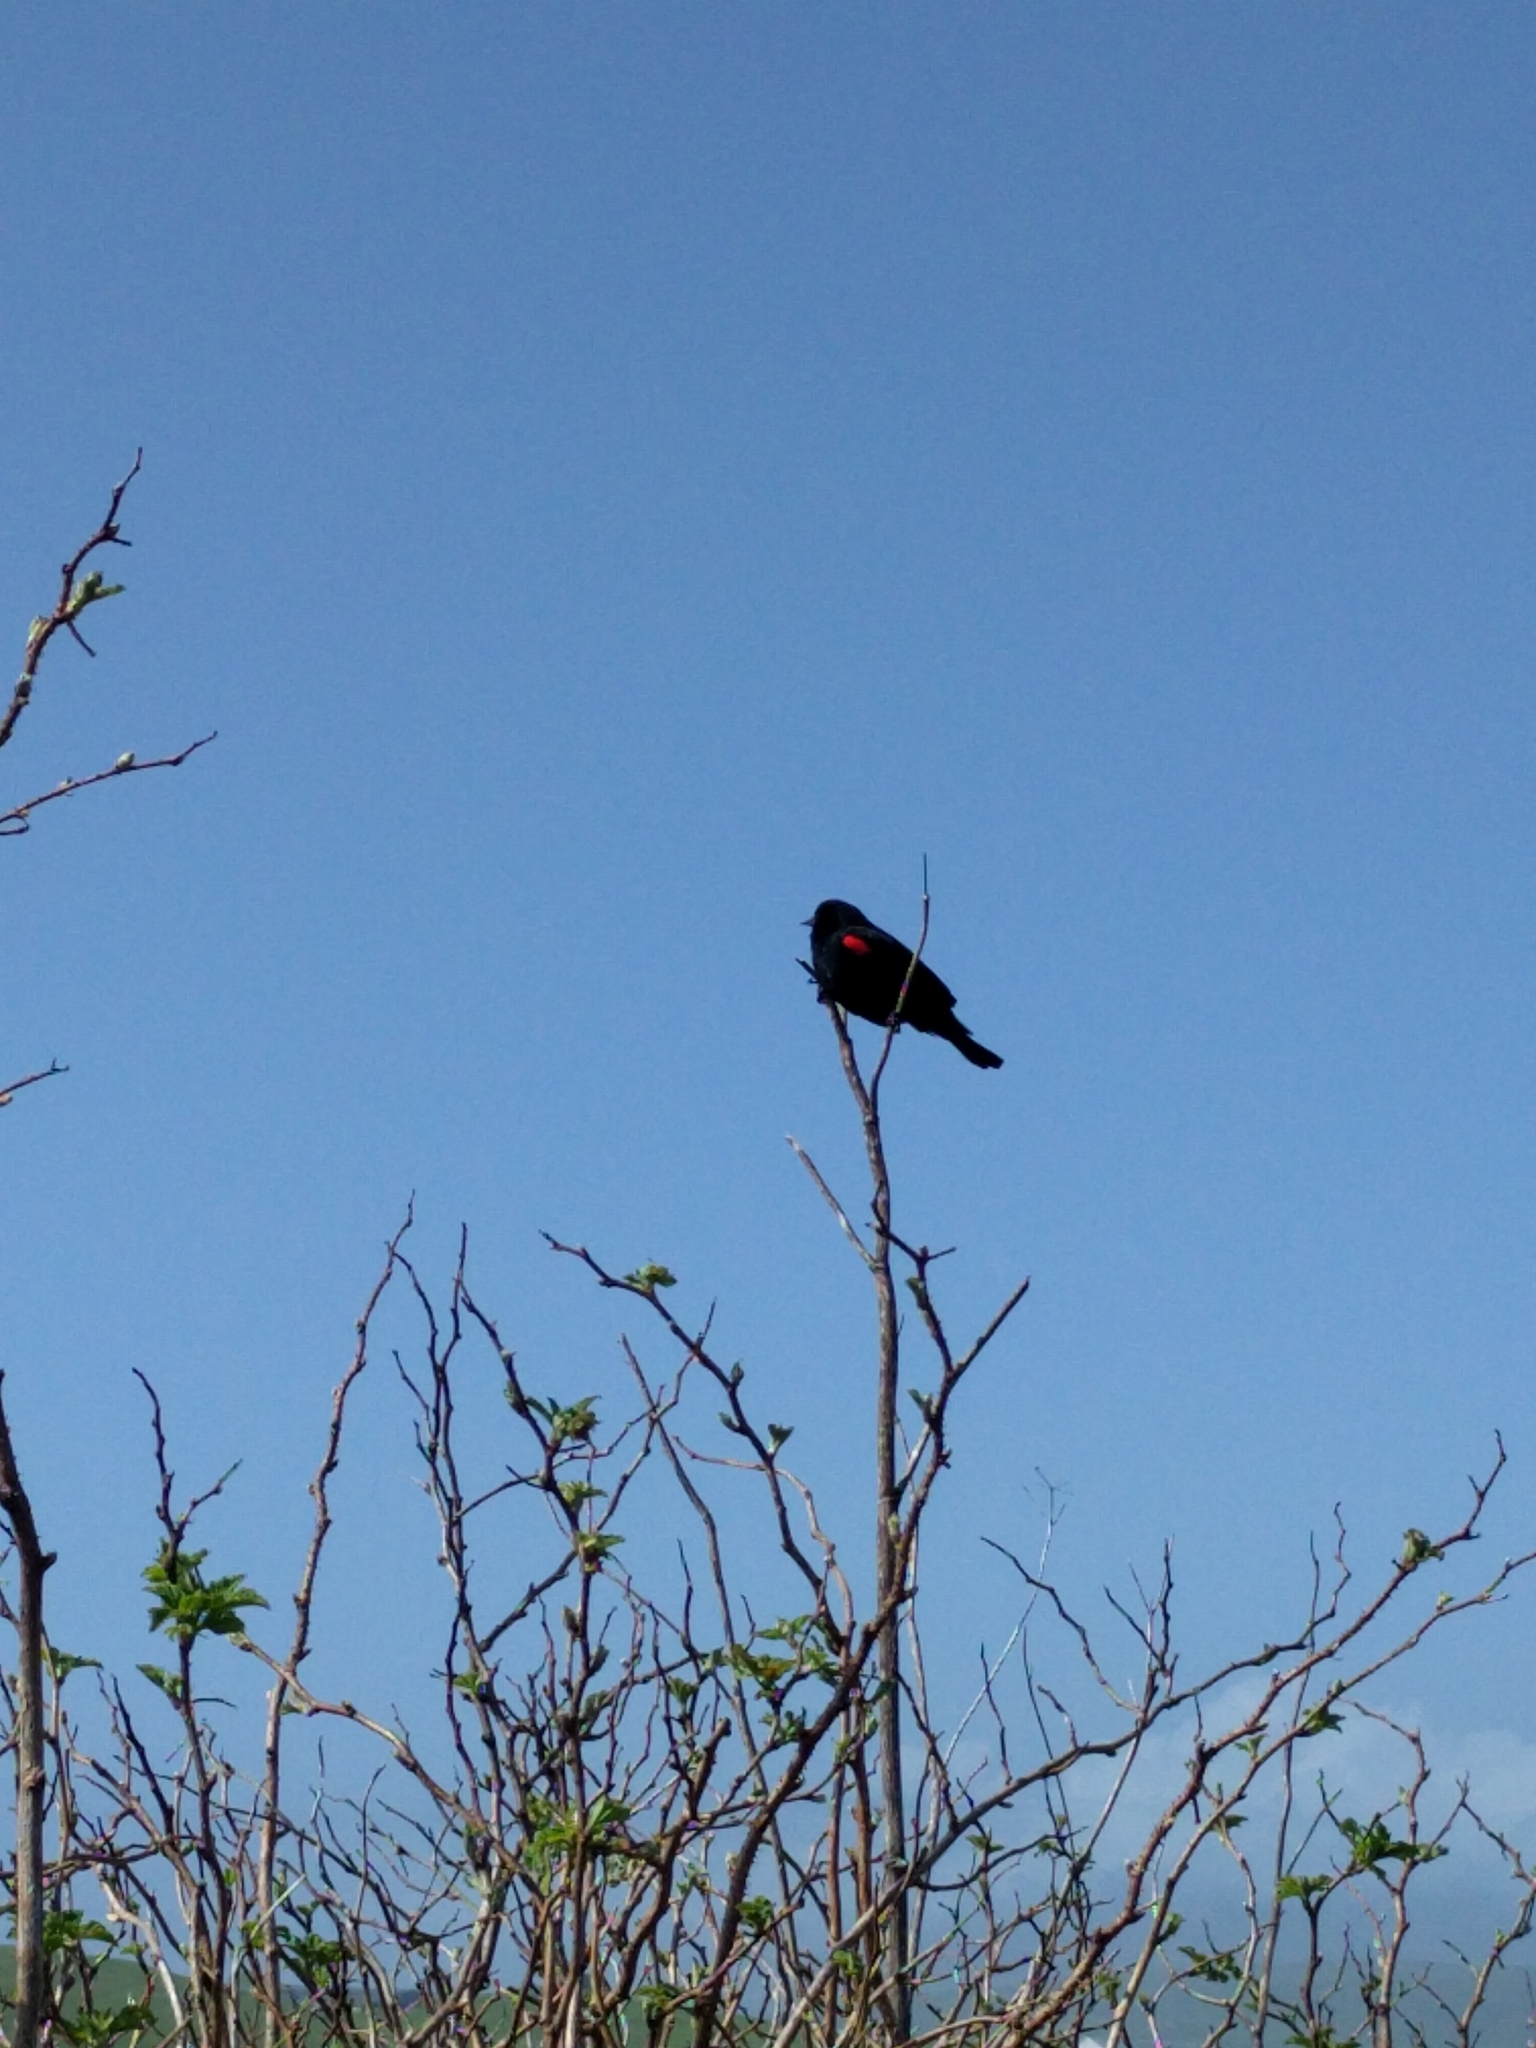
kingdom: Animalia
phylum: Chordata
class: Aves
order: Passeriformes
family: Icteridae
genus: Agelaius
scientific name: Agelaius phoeniceus
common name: Red-winged blackbird
